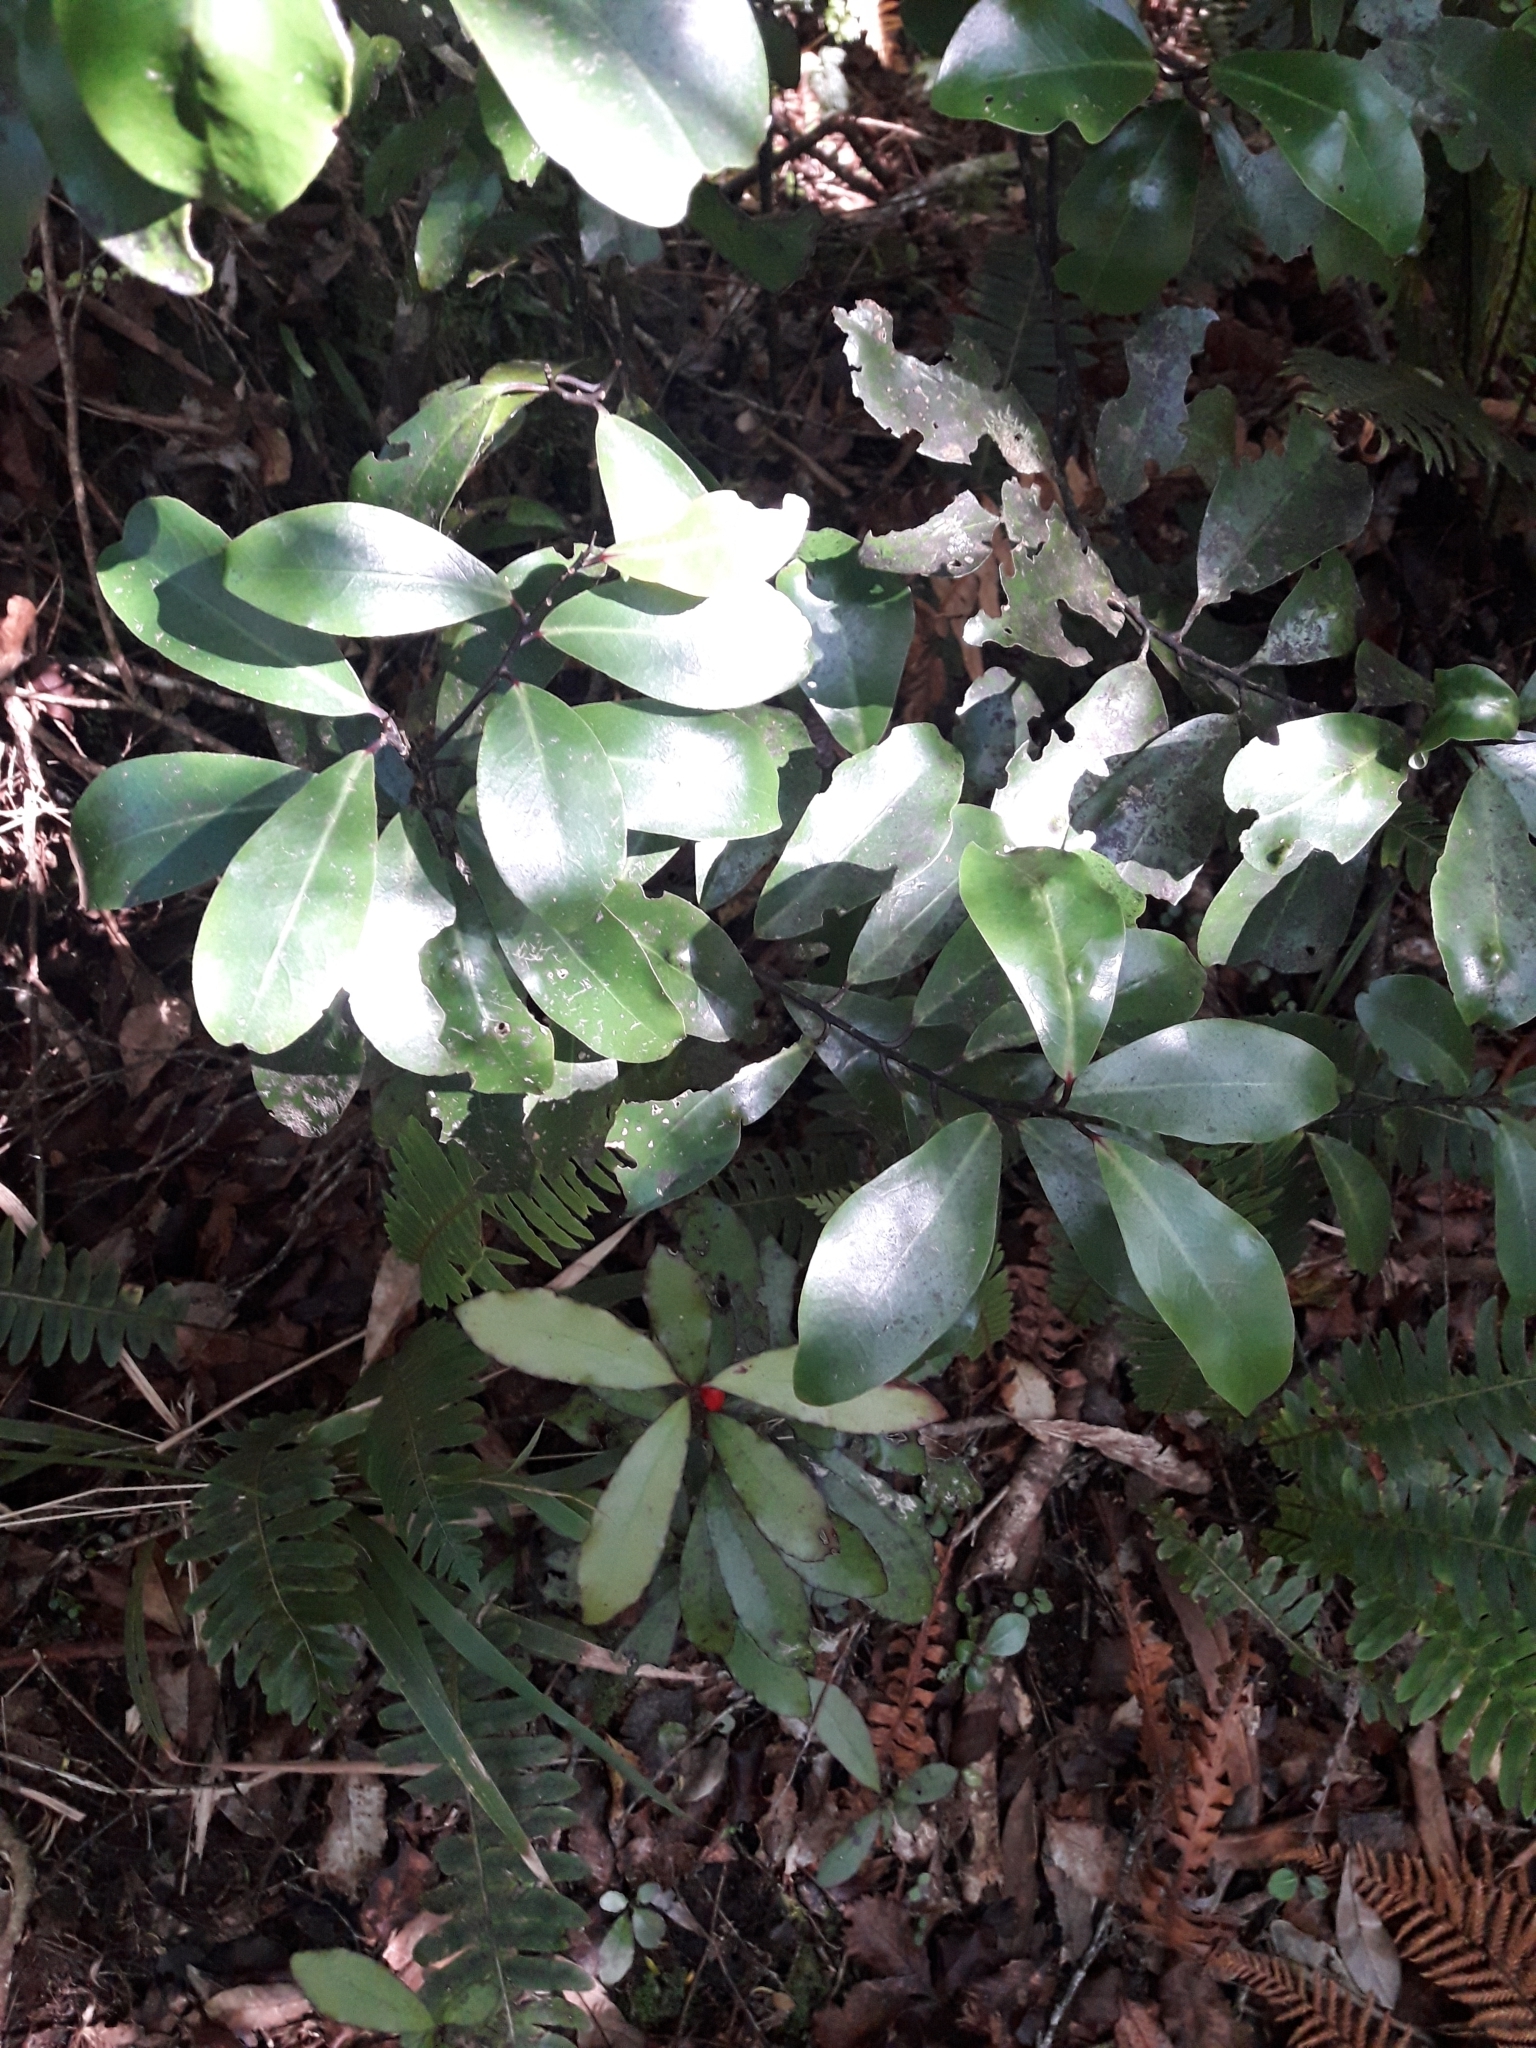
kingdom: Plantae
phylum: Tracheophyta
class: Magnoliopsida
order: Canellales
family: Winteraceae
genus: Pseudowintera
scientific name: Pseudowintera axillaris
